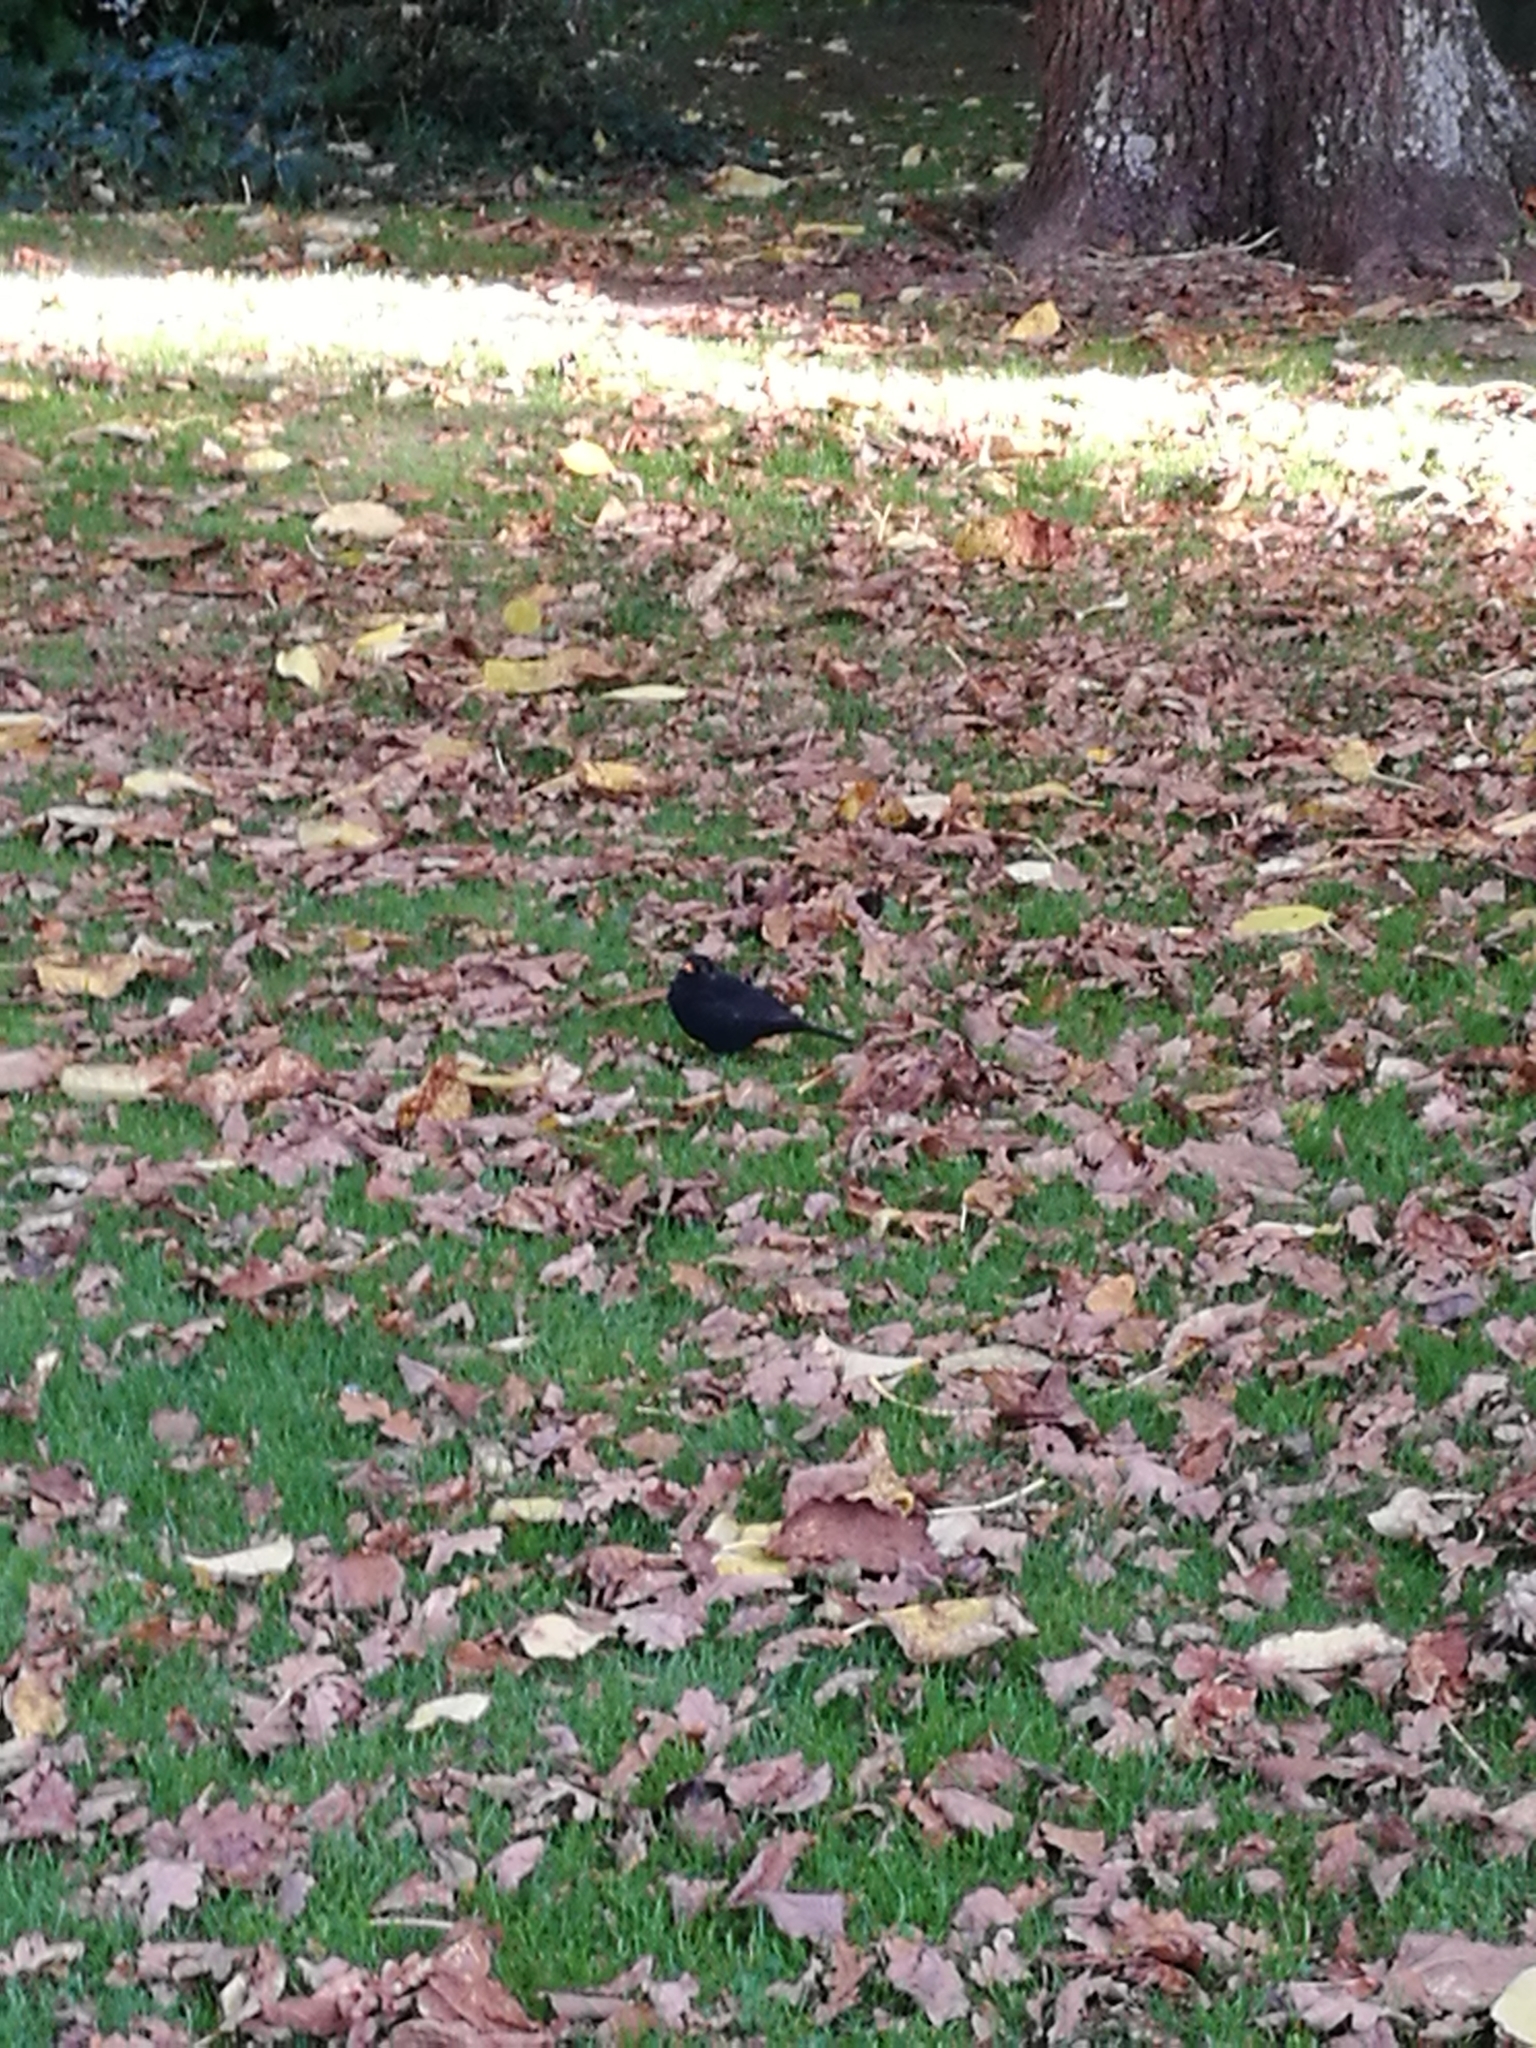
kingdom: Animalia
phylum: Chordata
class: Aves
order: Passeriformes
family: Turdidae
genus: Turdus
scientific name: Turdus merula
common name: Common blackbird
